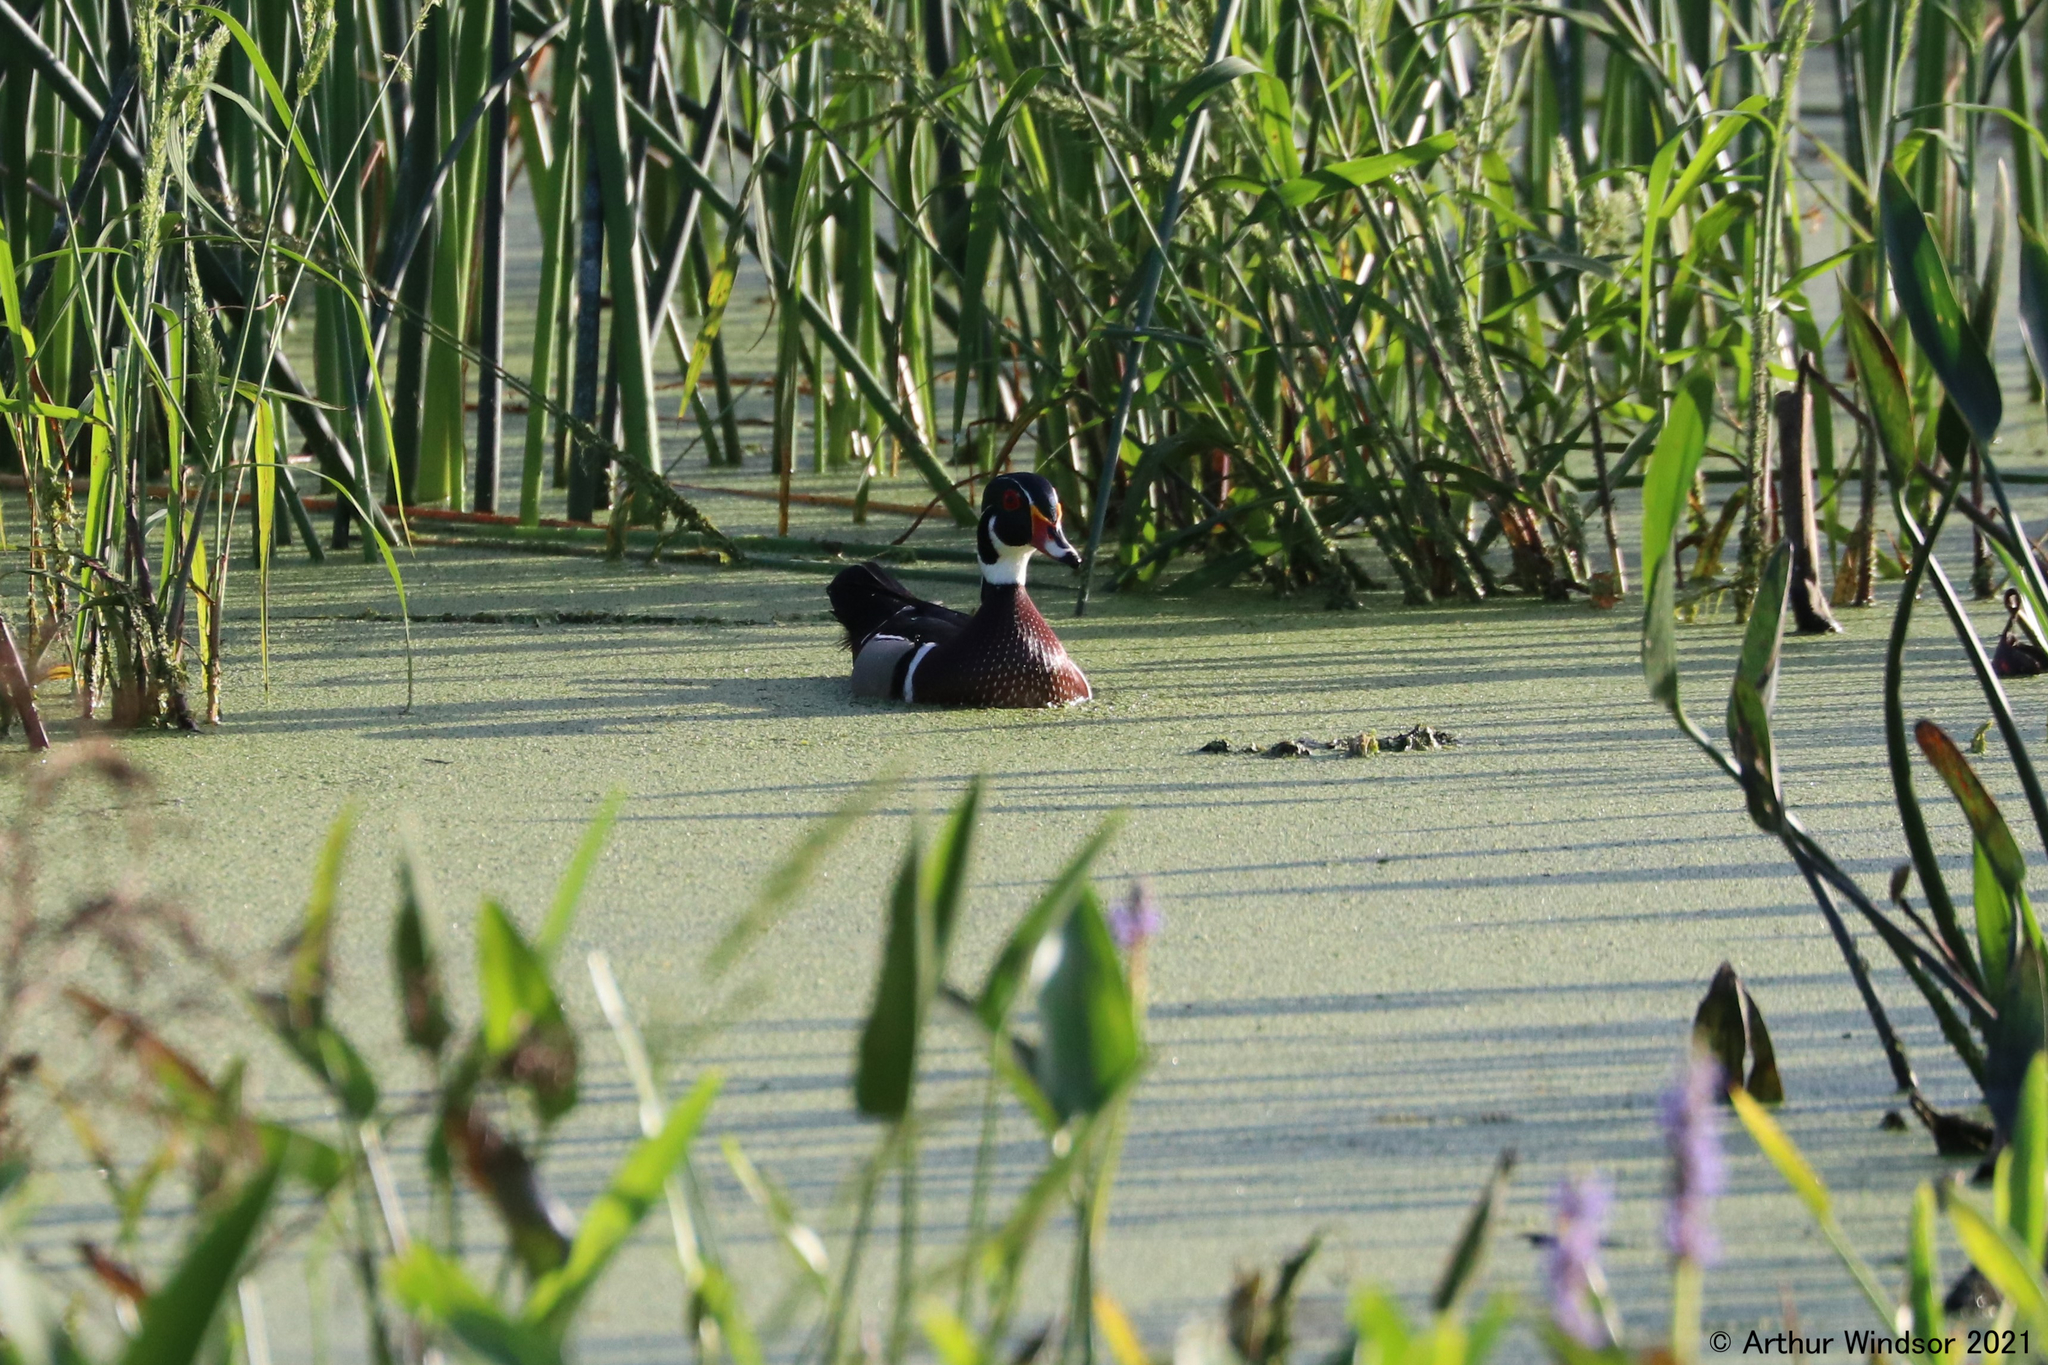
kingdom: Animalia
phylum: Chordata
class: Aves
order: Anseriformes
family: Anatidae
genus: Aix
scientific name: Aix sponsa
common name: Wood duck
